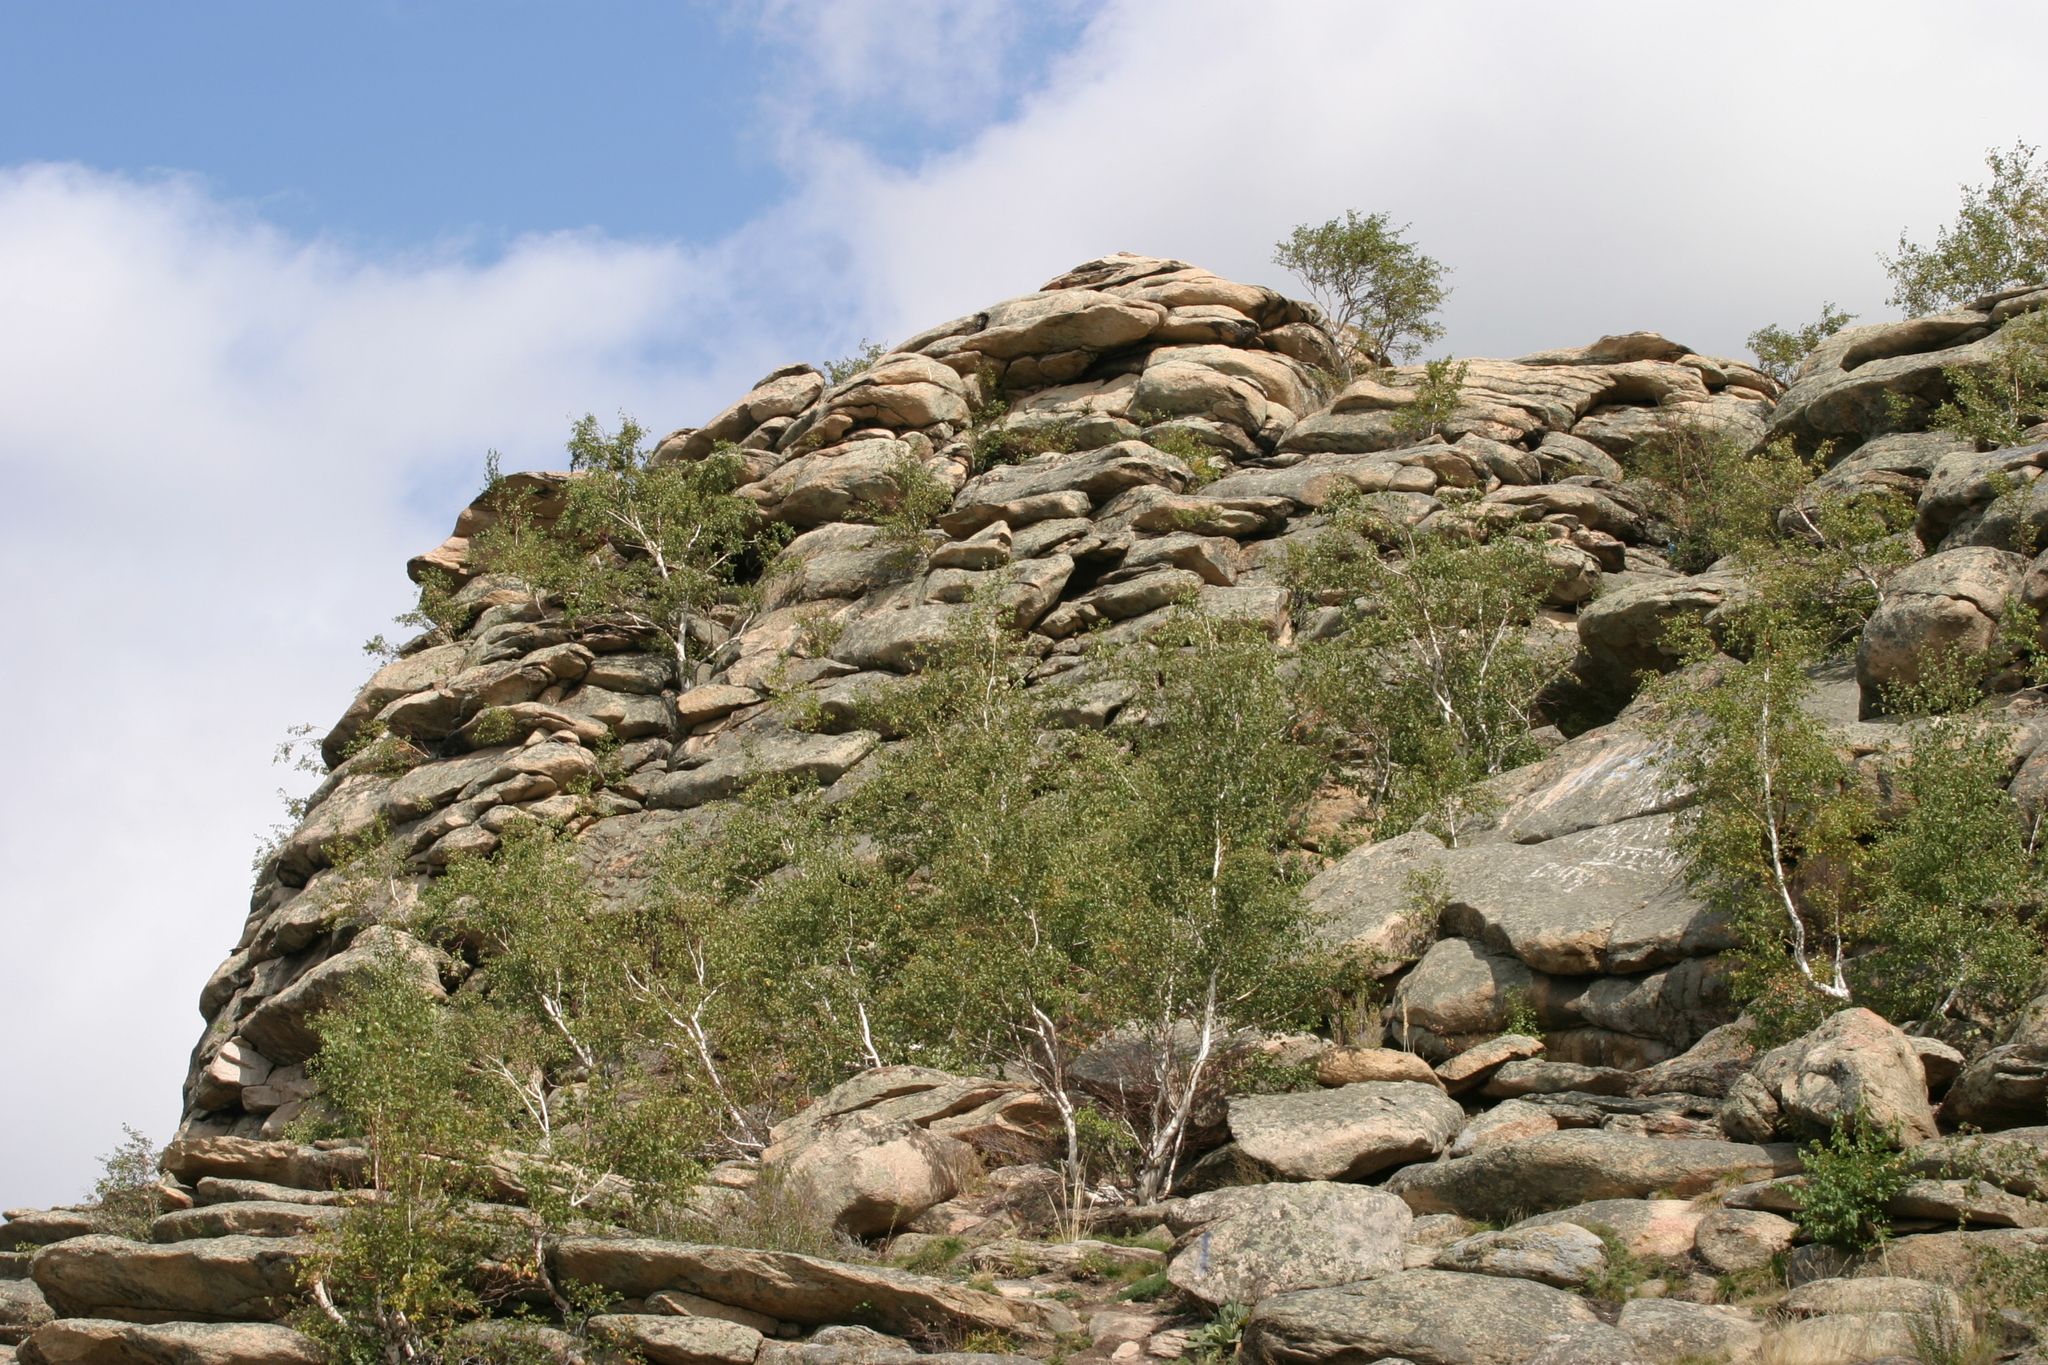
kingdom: Plantae
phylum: Tracheophyta
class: Magnoliopsida
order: Fagales
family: Betulaceae
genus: Betula
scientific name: Betula pendula
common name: Silver birch
